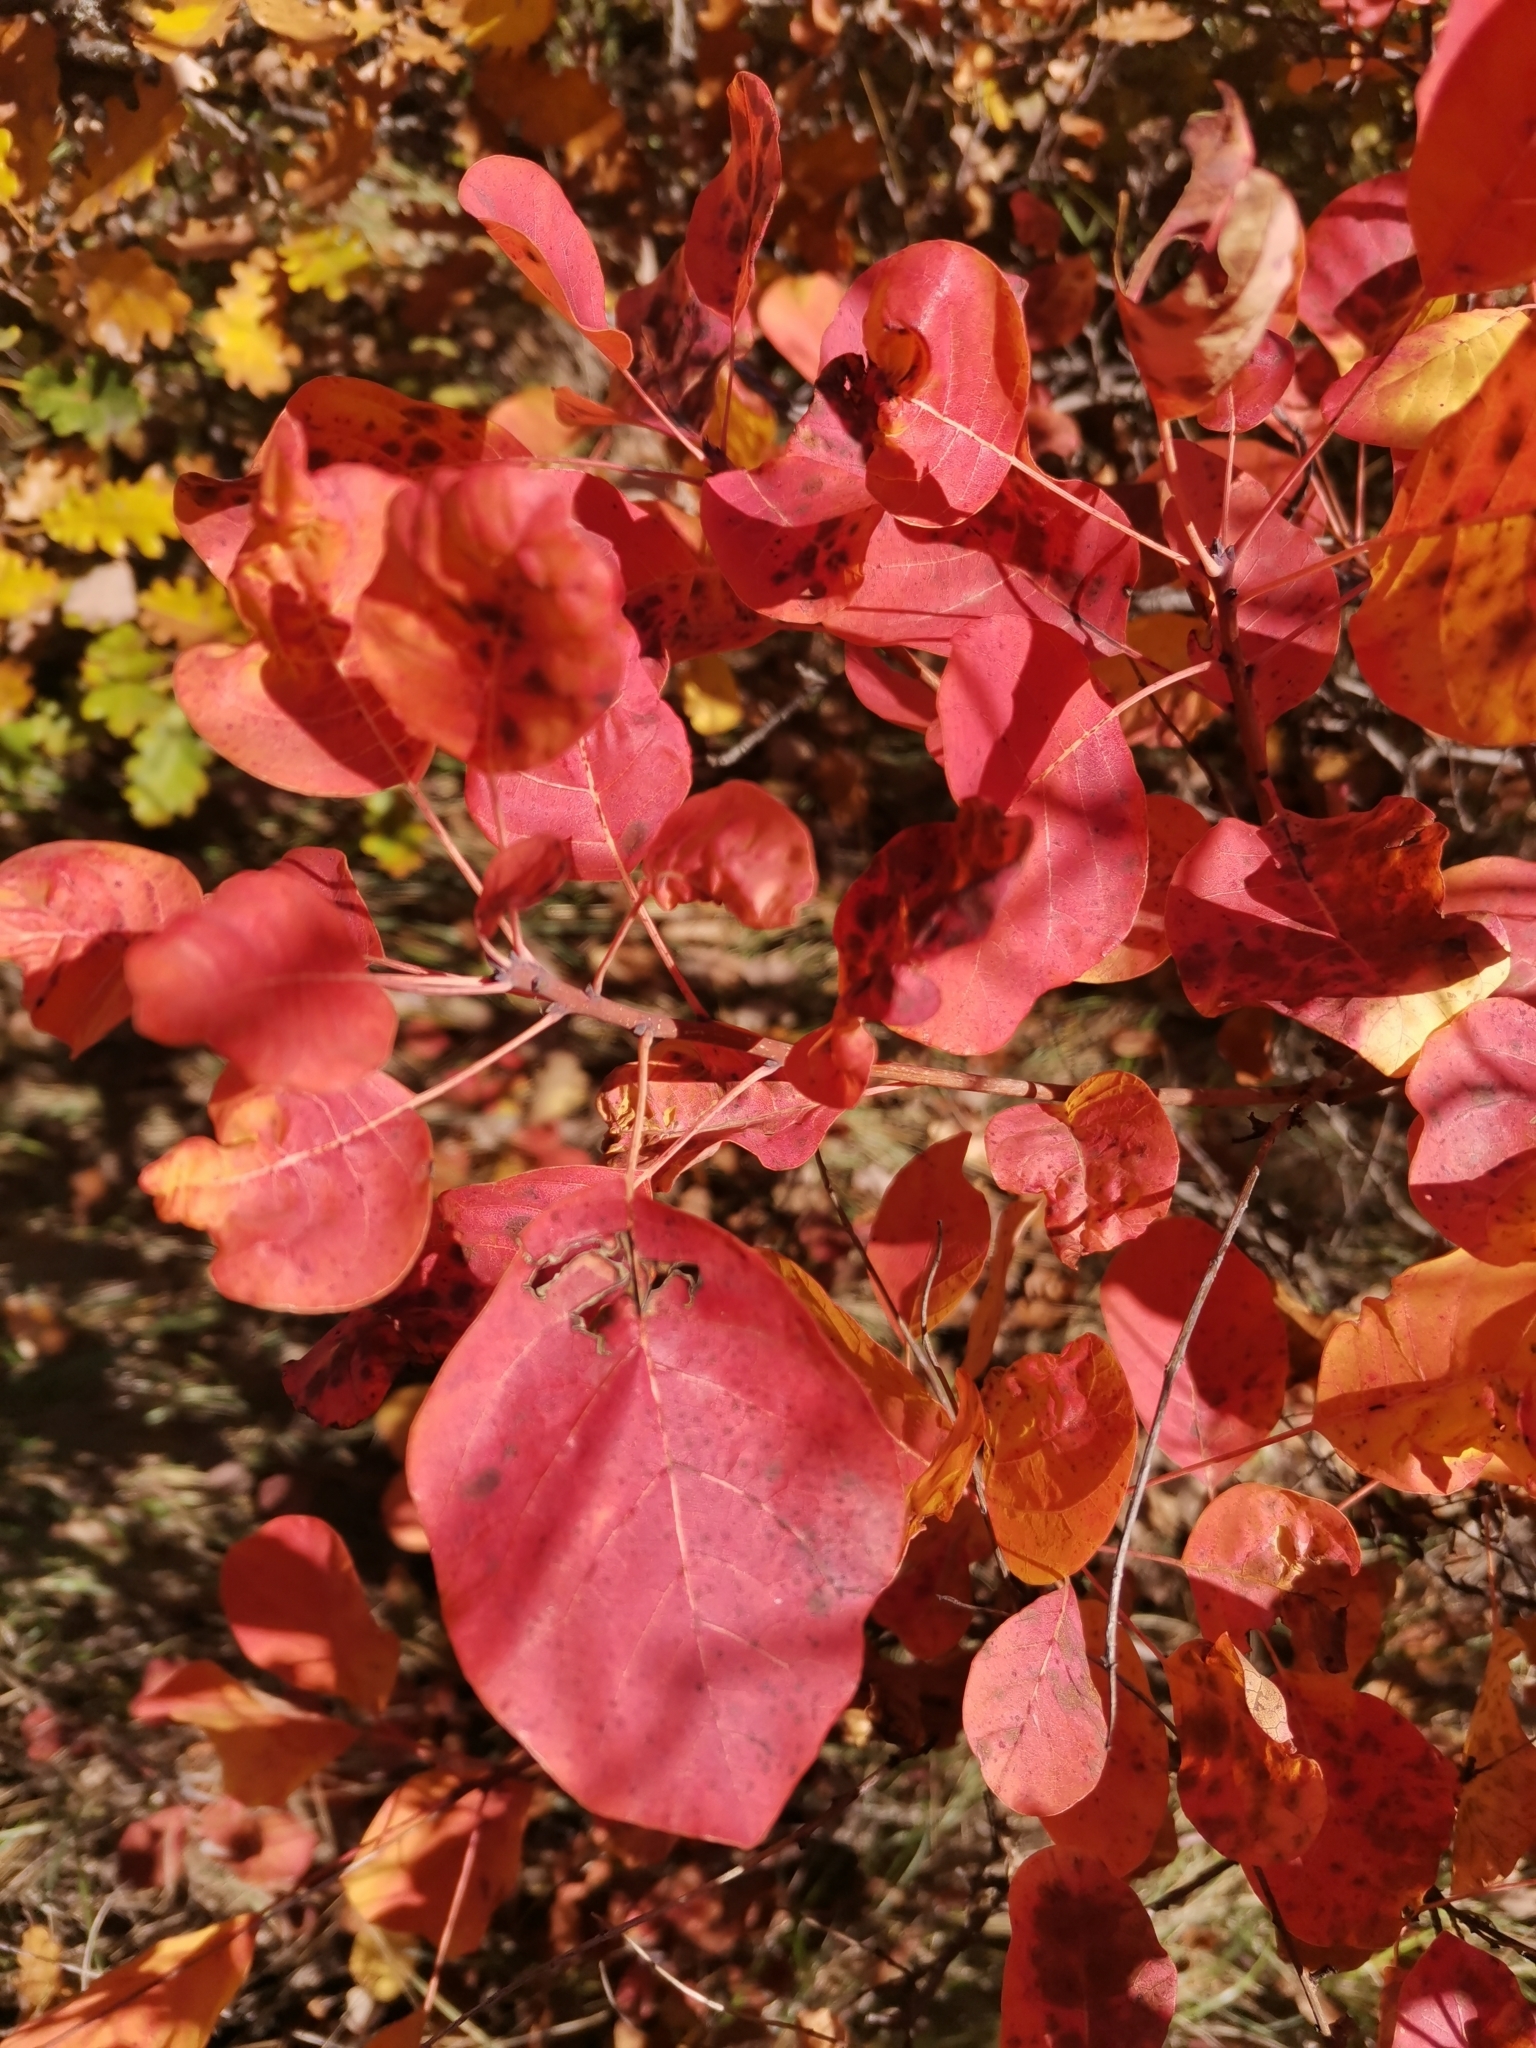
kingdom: Plantae
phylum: Tracheophyta
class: Magnoliopsida
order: Sapindales
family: Anacardiaceae
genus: Cotinus
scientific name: Cotinus coggygria
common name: Smoke-tree
